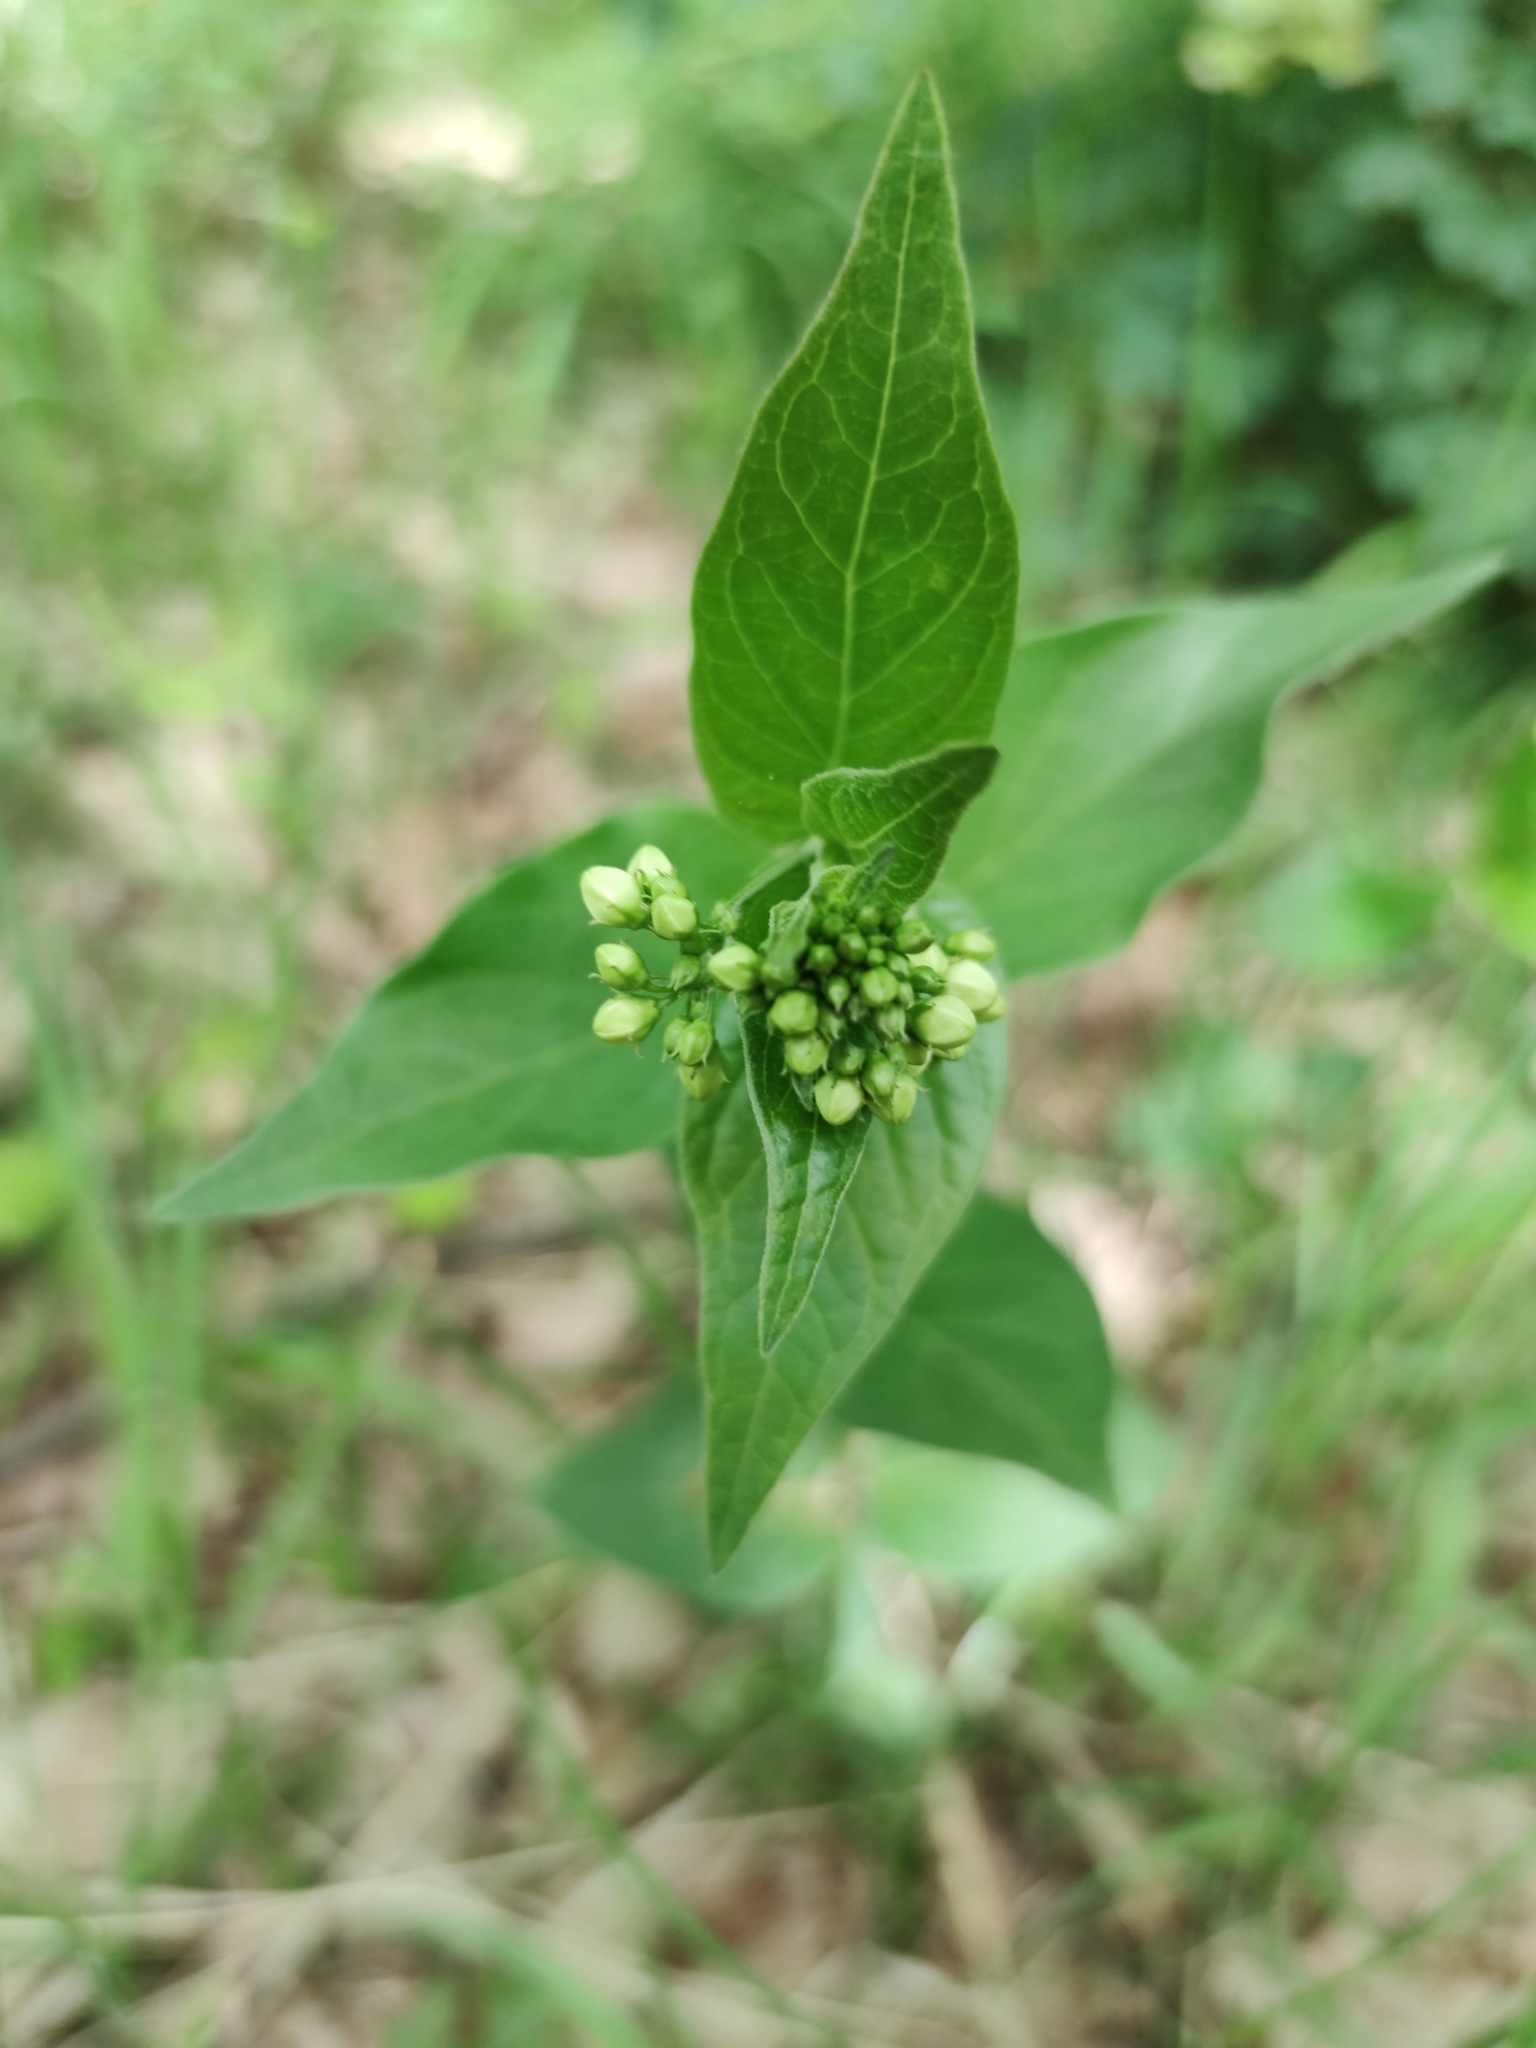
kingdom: Plantae
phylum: Tracheophyta
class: Magnoliopsida
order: Gentianales
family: Apocynaceae
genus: Vincetoxicum
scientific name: Vincetoxicum hirundinaria
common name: White swallowwort
